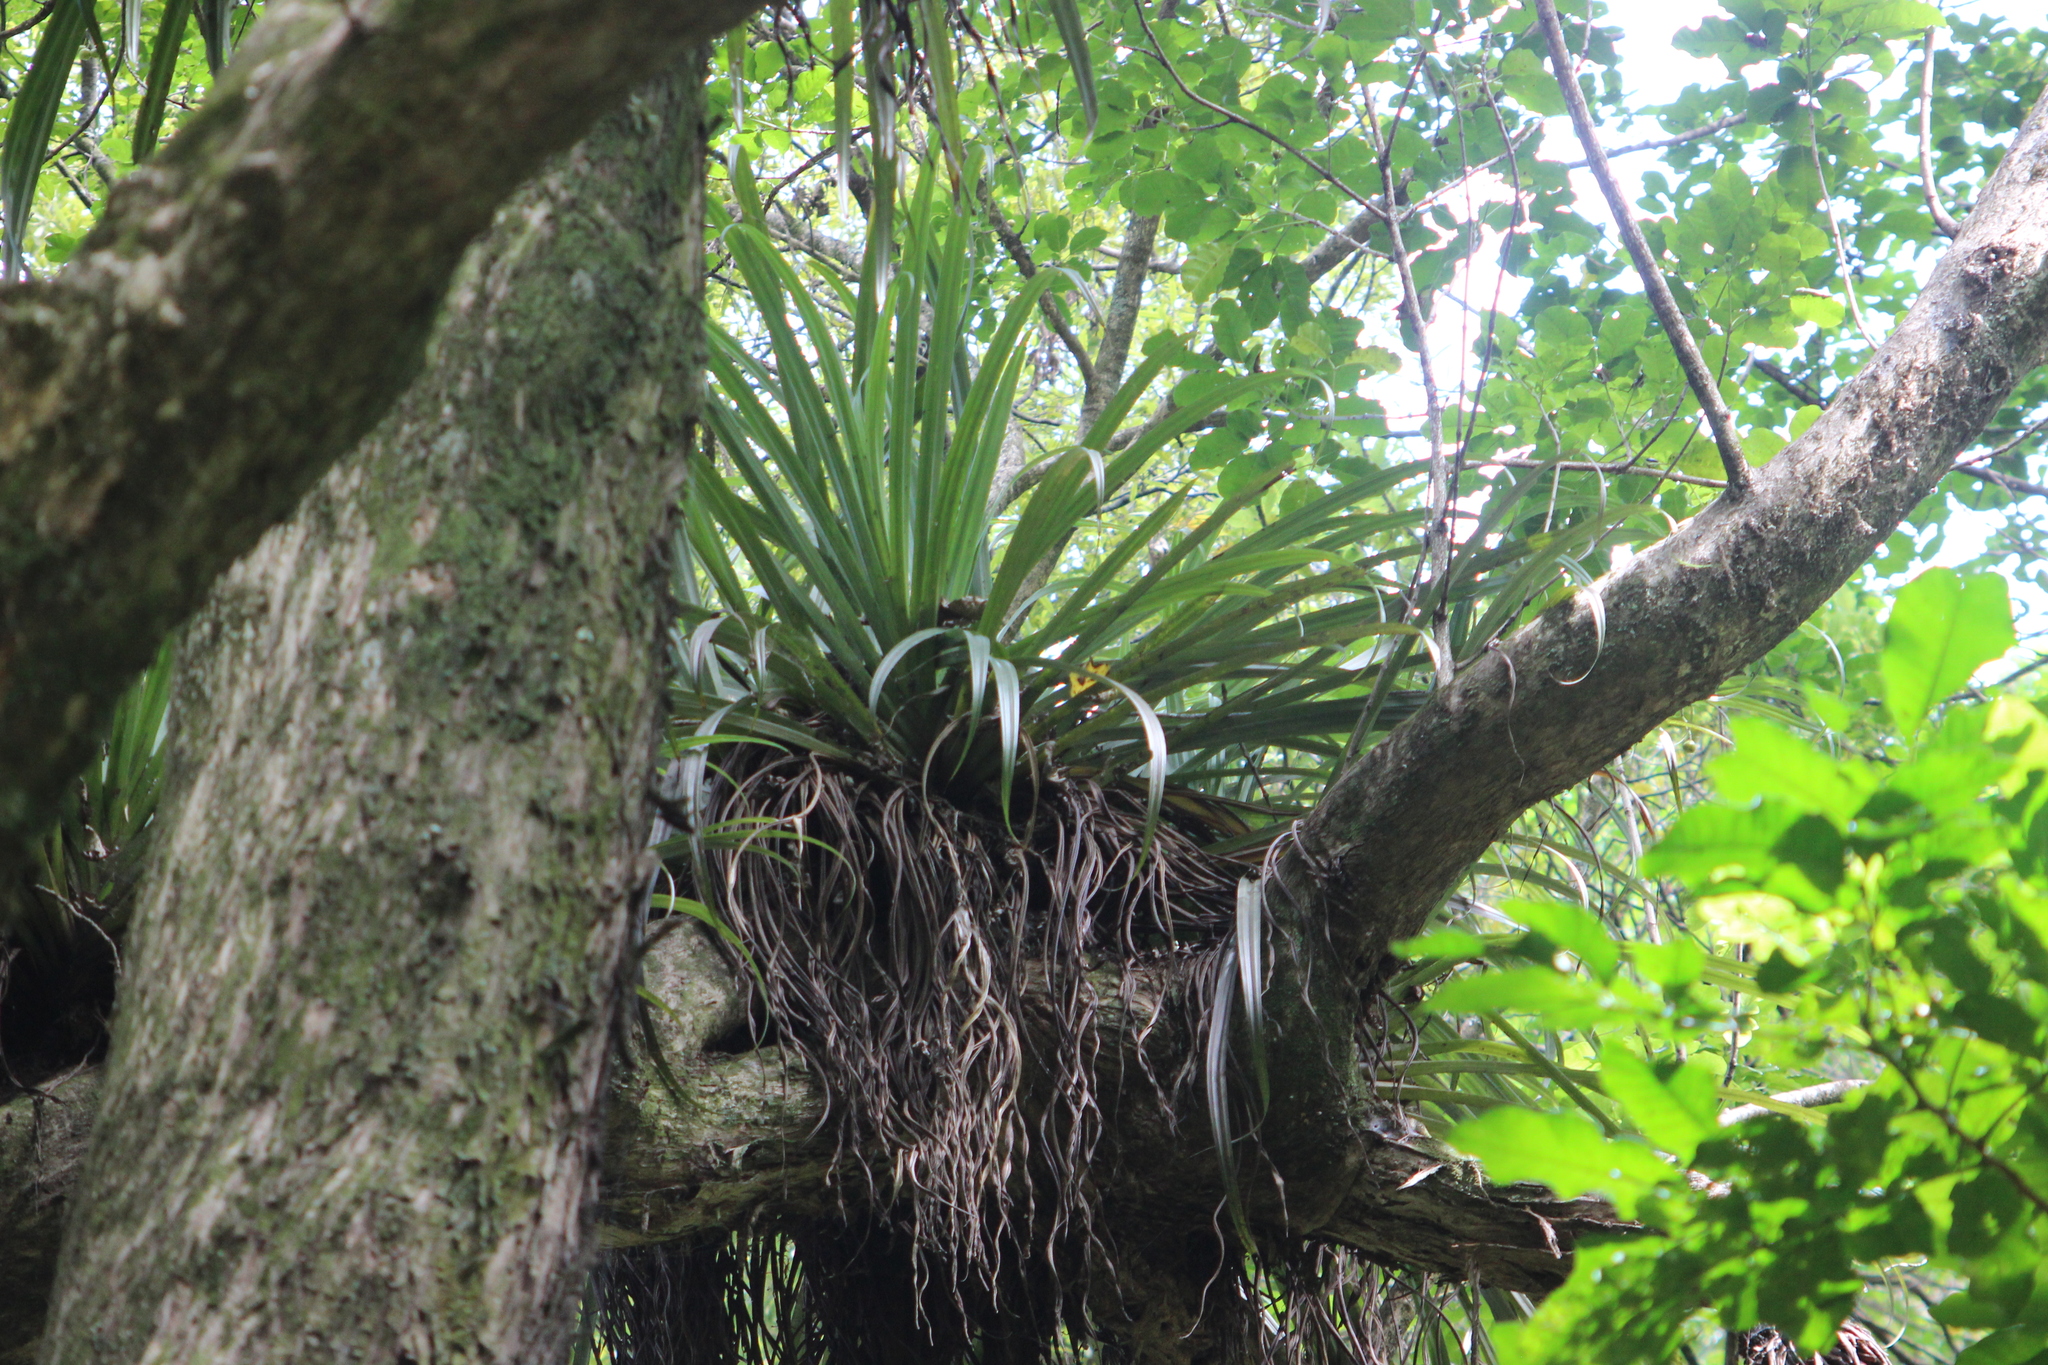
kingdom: Plantae
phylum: Tracheophyta
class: Liliopsida
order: Asparagales
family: Asteliaceae
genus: Astelia
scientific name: Astelia hastata
